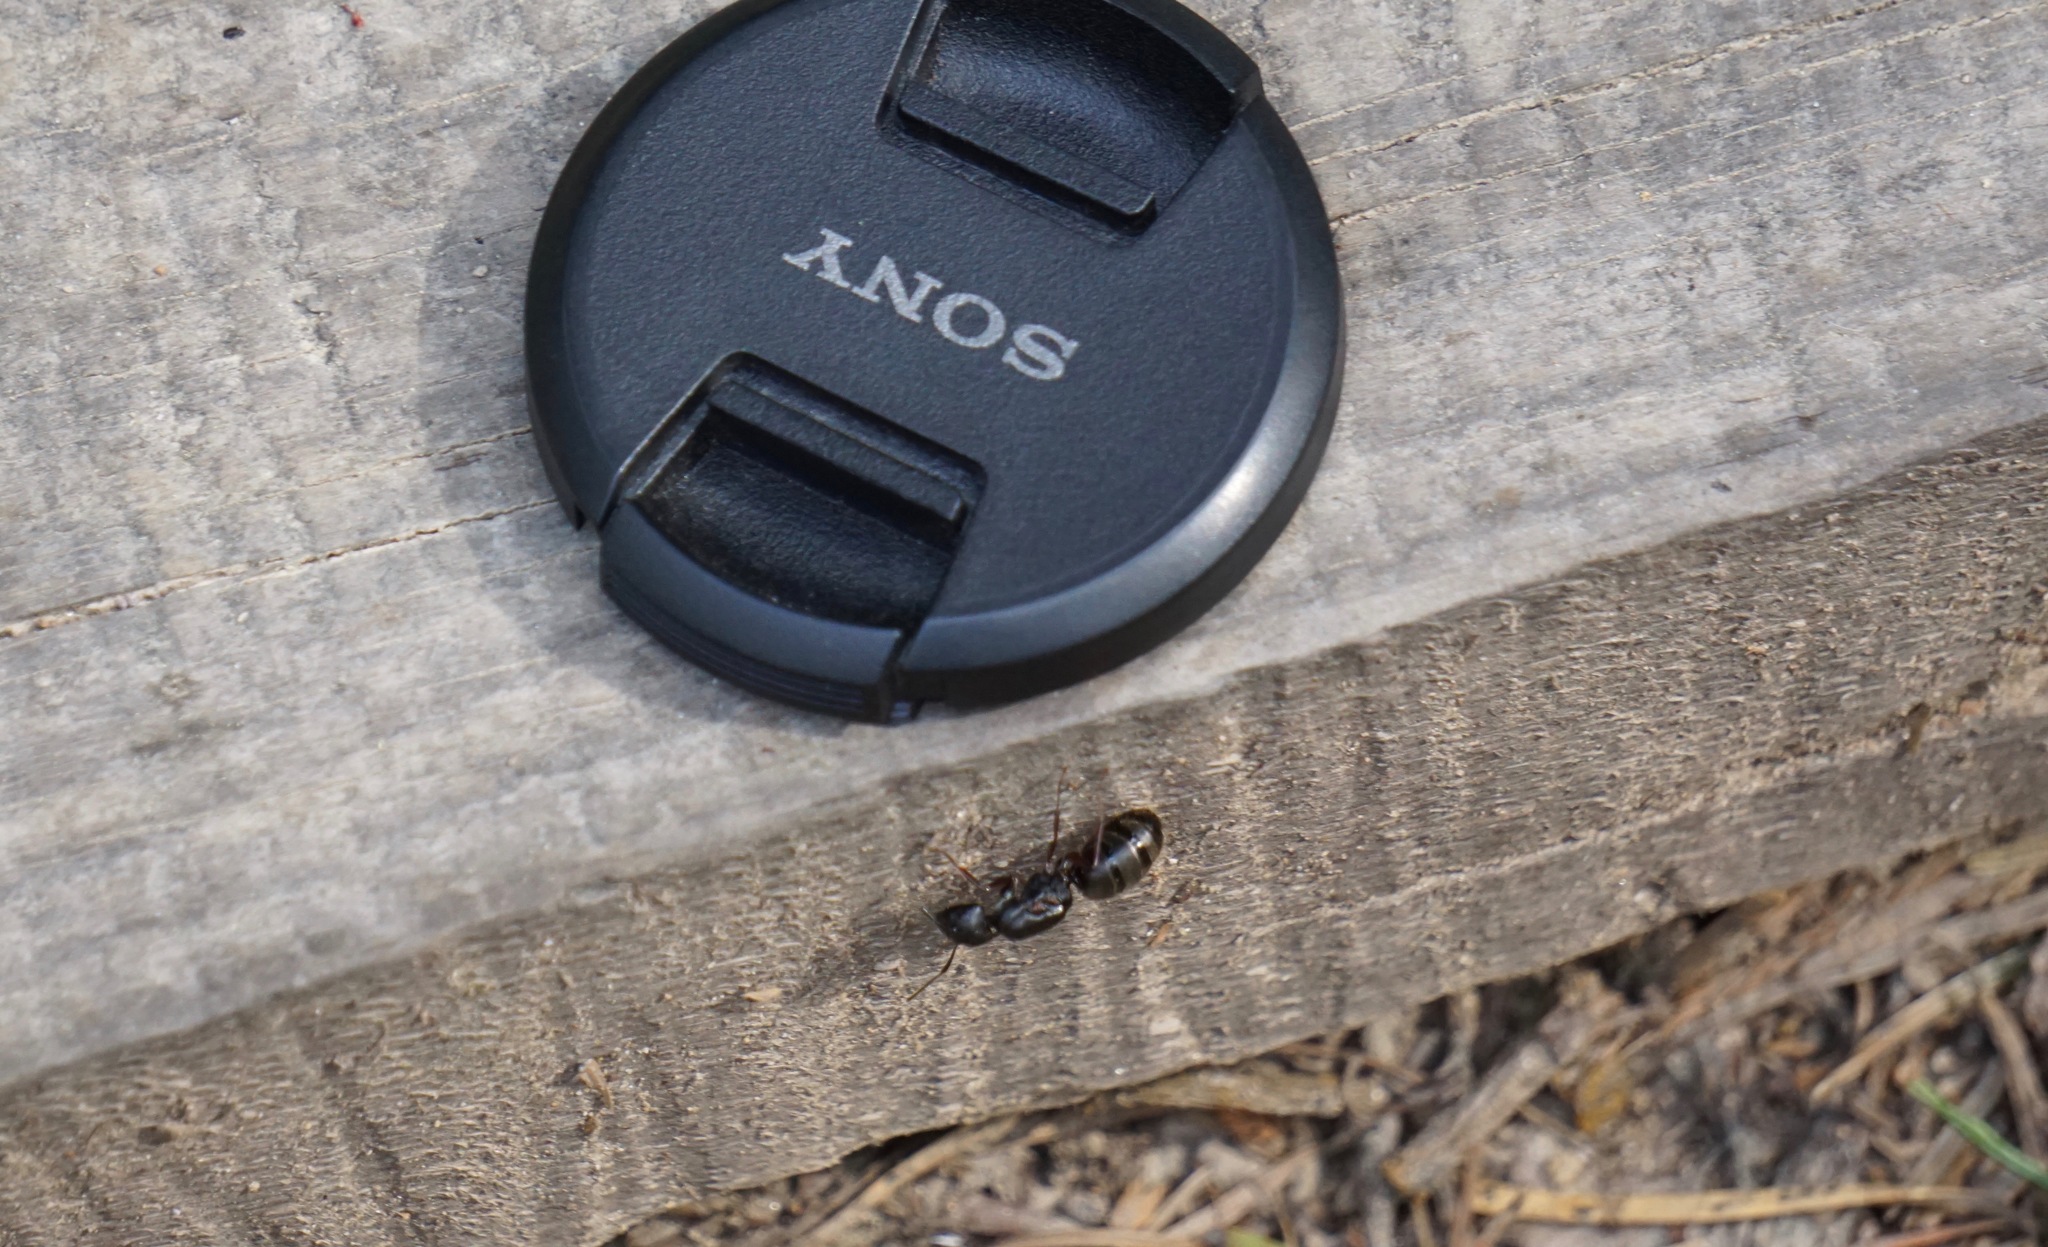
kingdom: Animalia
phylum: Arthropoda
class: Insecta
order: Hymenoptera
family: Formicidae
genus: Camponotus
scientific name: Camponotus modoc
